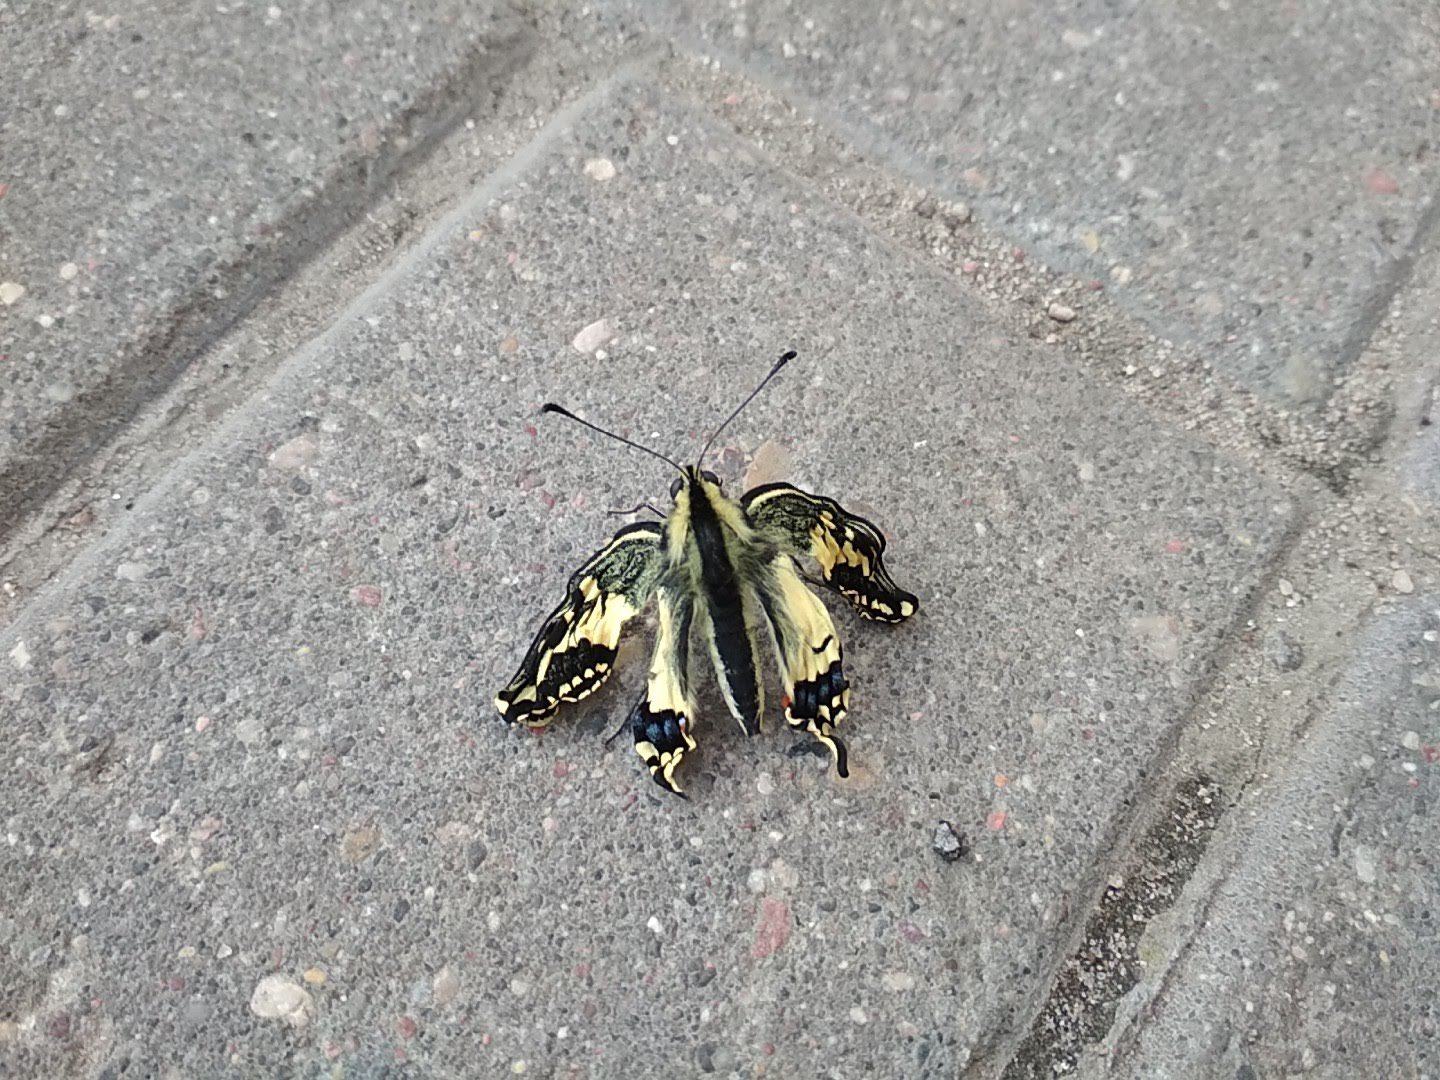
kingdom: Animalia
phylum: Arthropoda
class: Insecta
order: Lepidoptera
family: Papilionidae
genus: Papilio
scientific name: Papilio machaon
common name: Swallowtail
